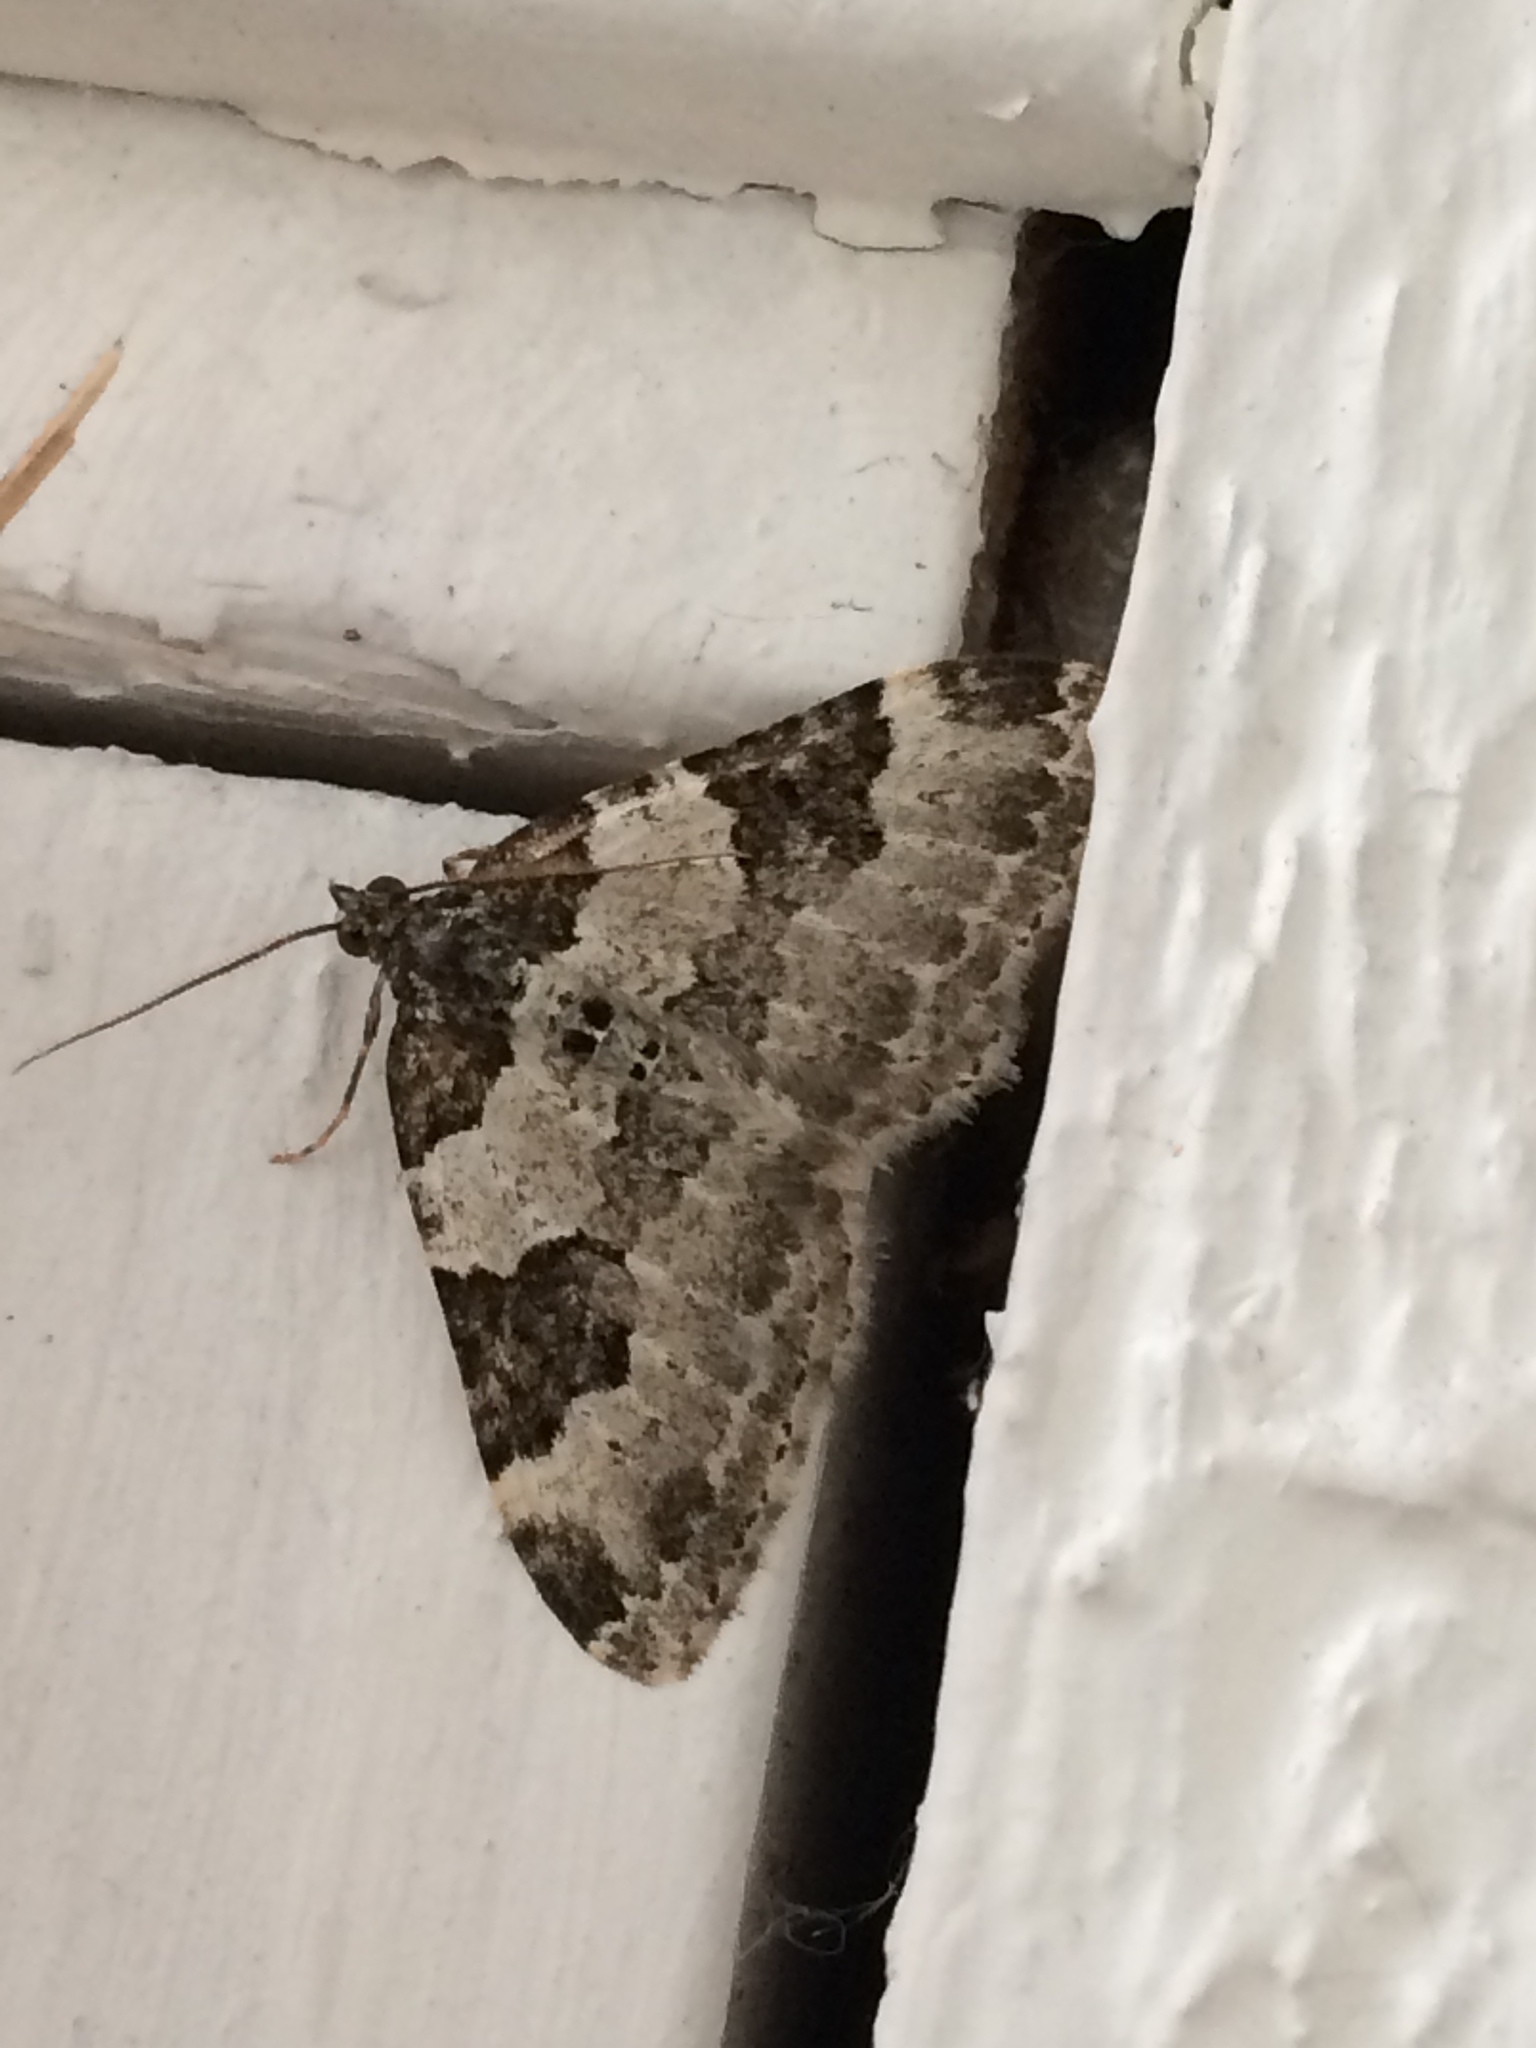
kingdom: Animalia
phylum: Arthropoda
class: Insecta
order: Lepidoptera
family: Geometridae
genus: Xanthorhoe
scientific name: Xanthorhoe fluctuata
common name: Garden carpet
